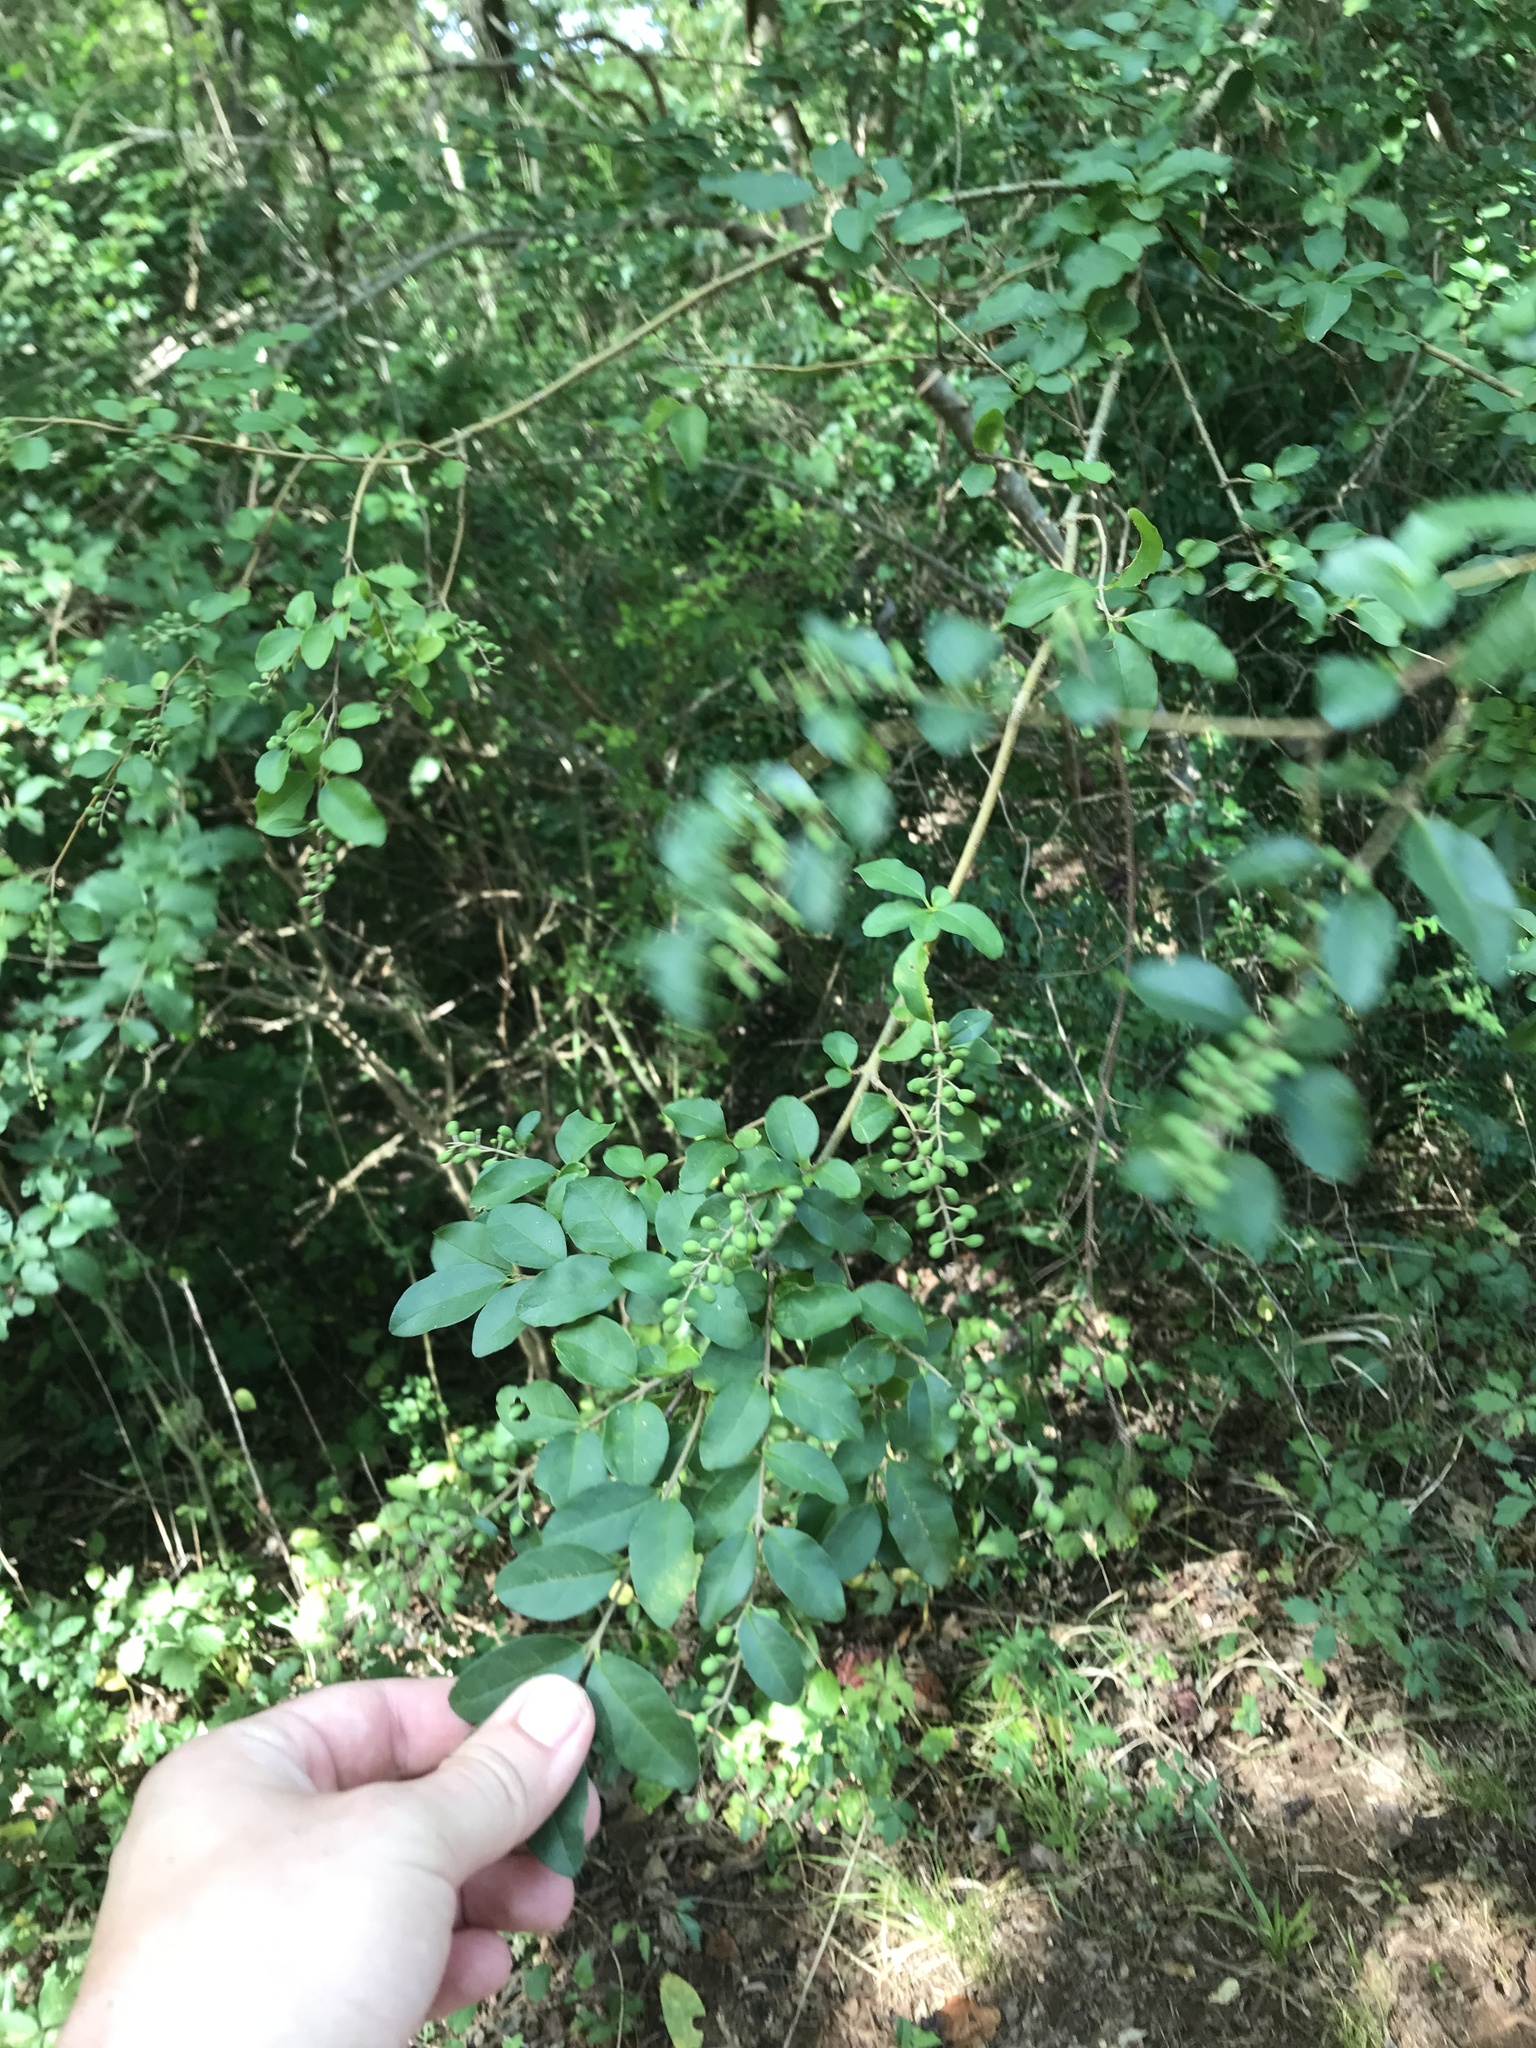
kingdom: Plantae
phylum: Tracheophyta
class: Magnoliopsida
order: Lamiales
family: Oleaceae
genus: Ligustrum
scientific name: Ligustrum sinense
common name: Chinese privet
